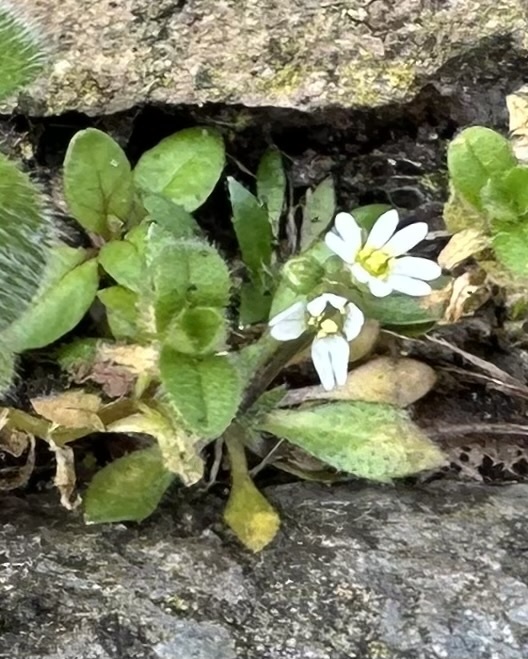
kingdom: Plantae
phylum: Tracheophyta
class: Magnoliopsida
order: Brassicales
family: Brassicaceae
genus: Draba
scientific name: Draba verna
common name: Spring draba
